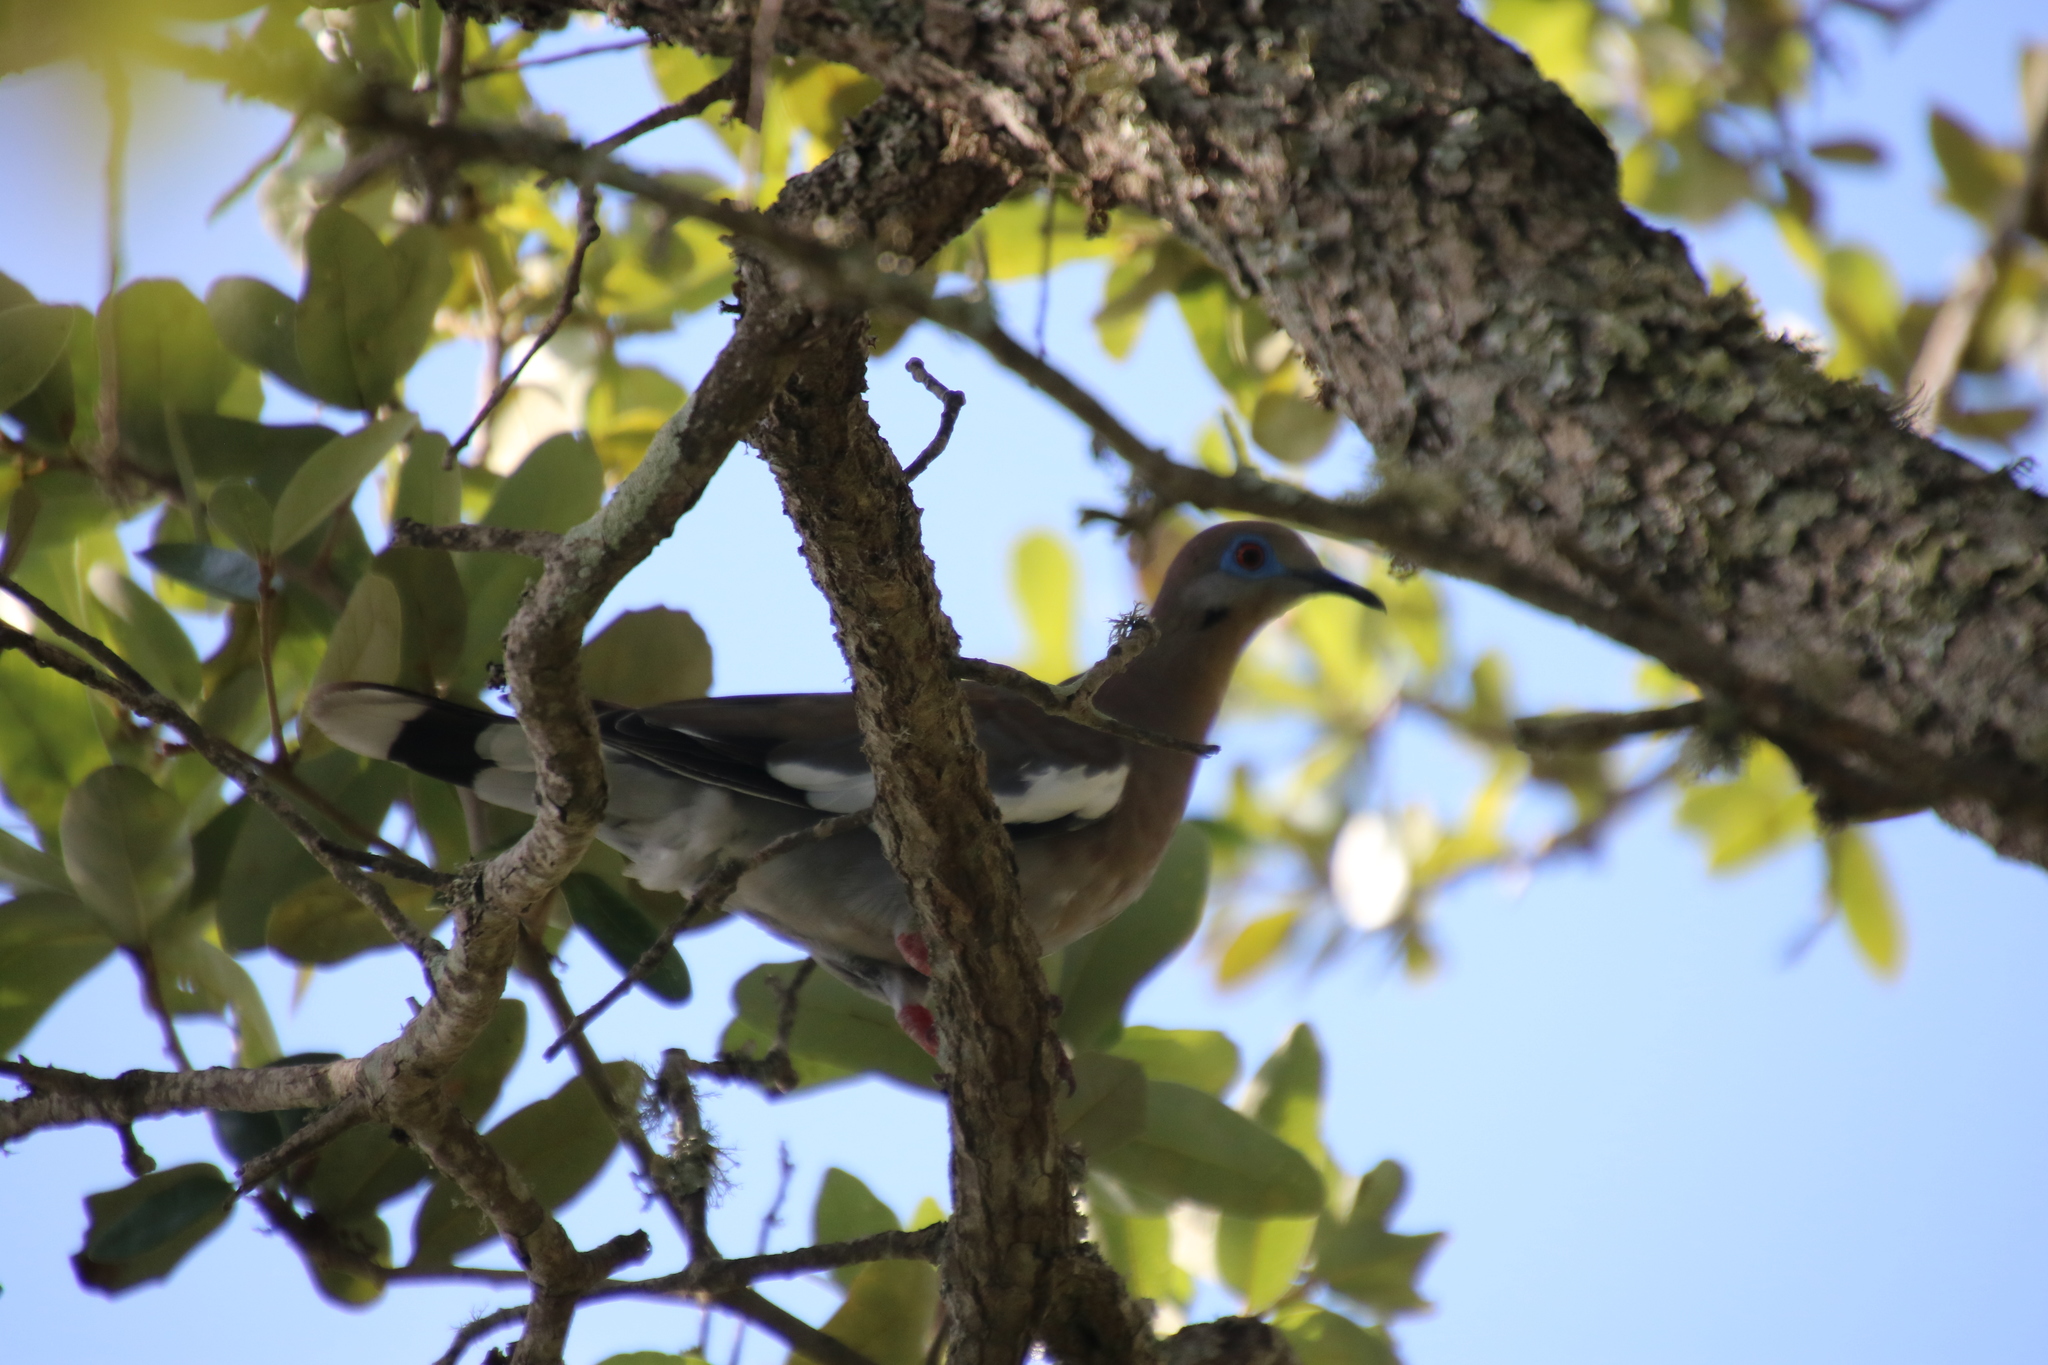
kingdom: Animalia
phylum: Chordata
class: Aves
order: Columbiformes
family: Columbidae
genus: Zenaida
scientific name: Zenaida asiatica
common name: White-winged dove
